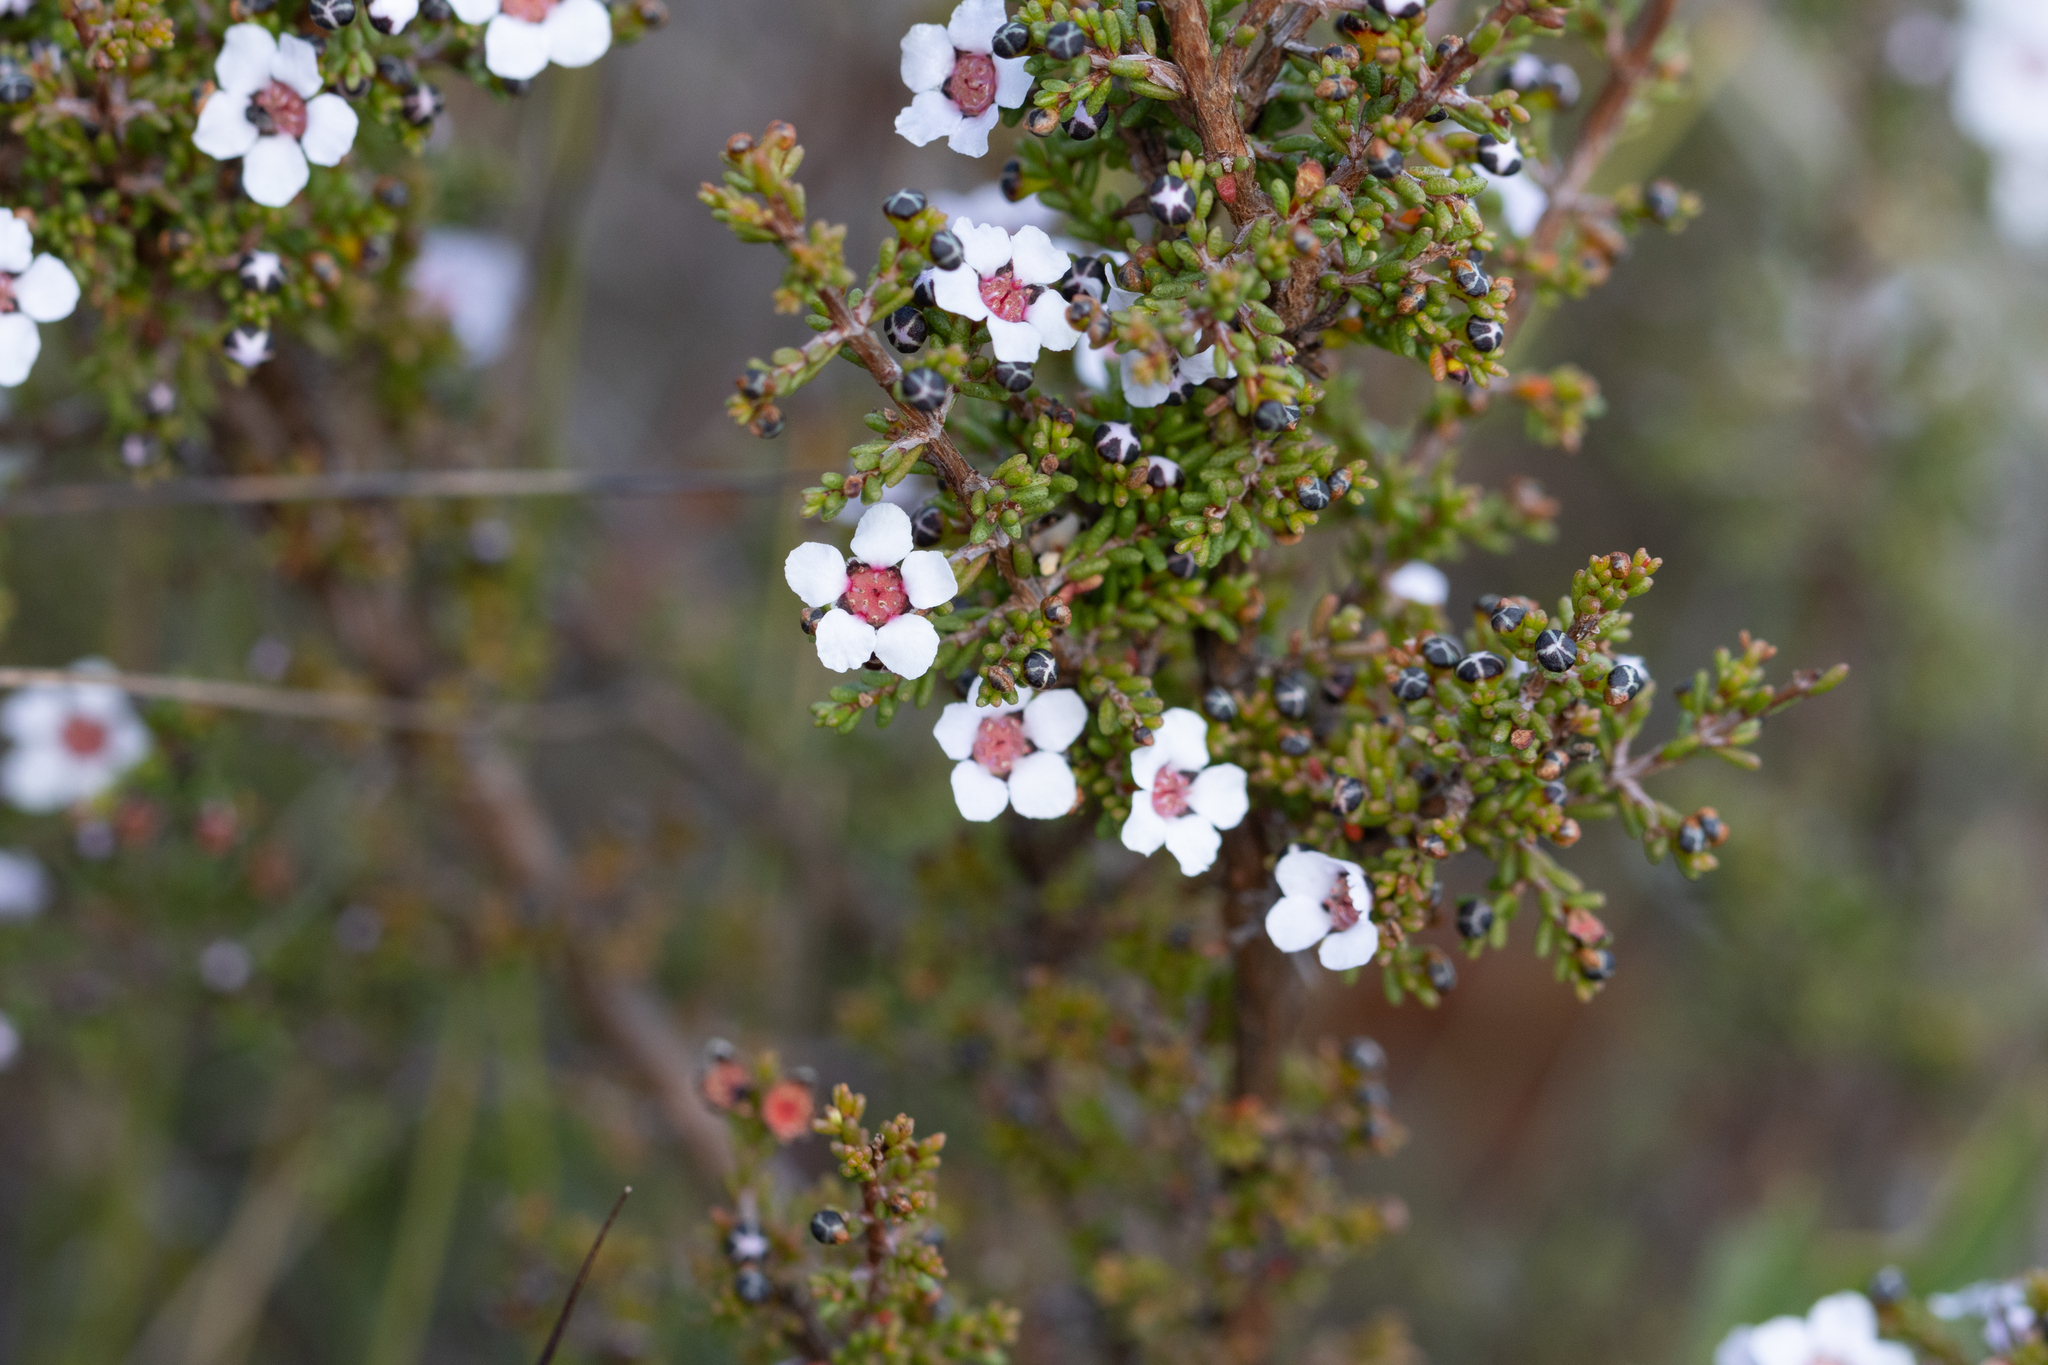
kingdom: Plantae
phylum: Tracheophyta
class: Magnoliopsida
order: Myrtales
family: Myrtaceae
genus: Rinzia
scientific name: Rinzia orientalis
